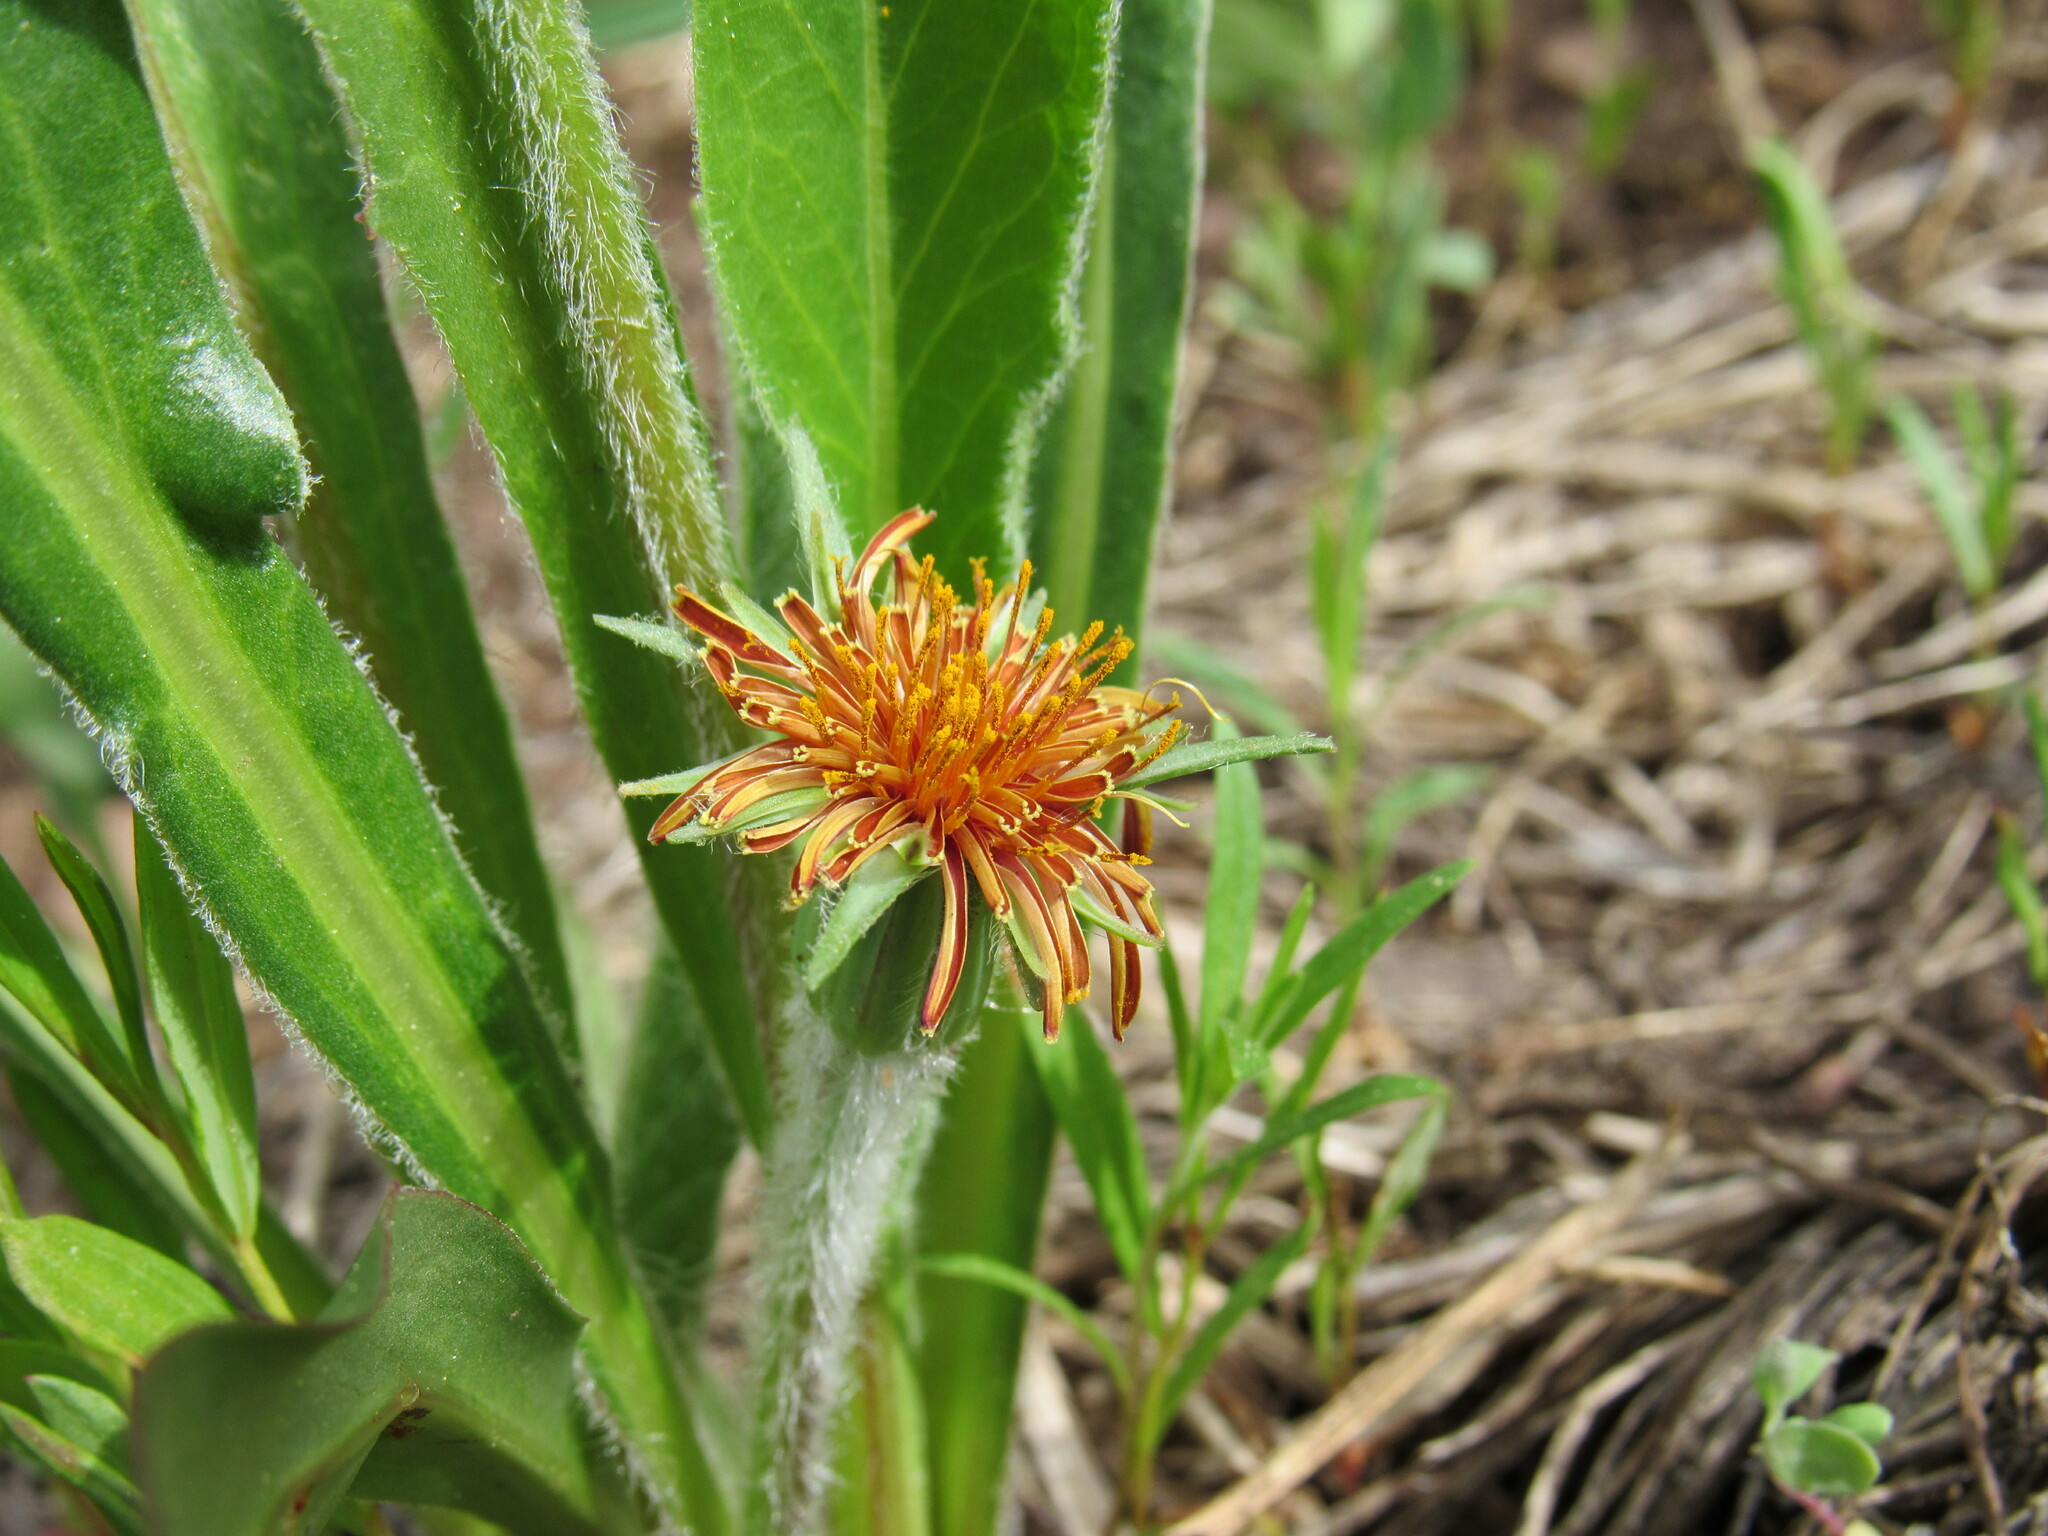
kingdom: Plantae
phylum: Tracheophyta
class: Magnoliopsida
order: Asterales
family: Asteraceae
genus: Agoseris
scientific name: Agoseris aurantiaca
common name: Mountain agoseris
